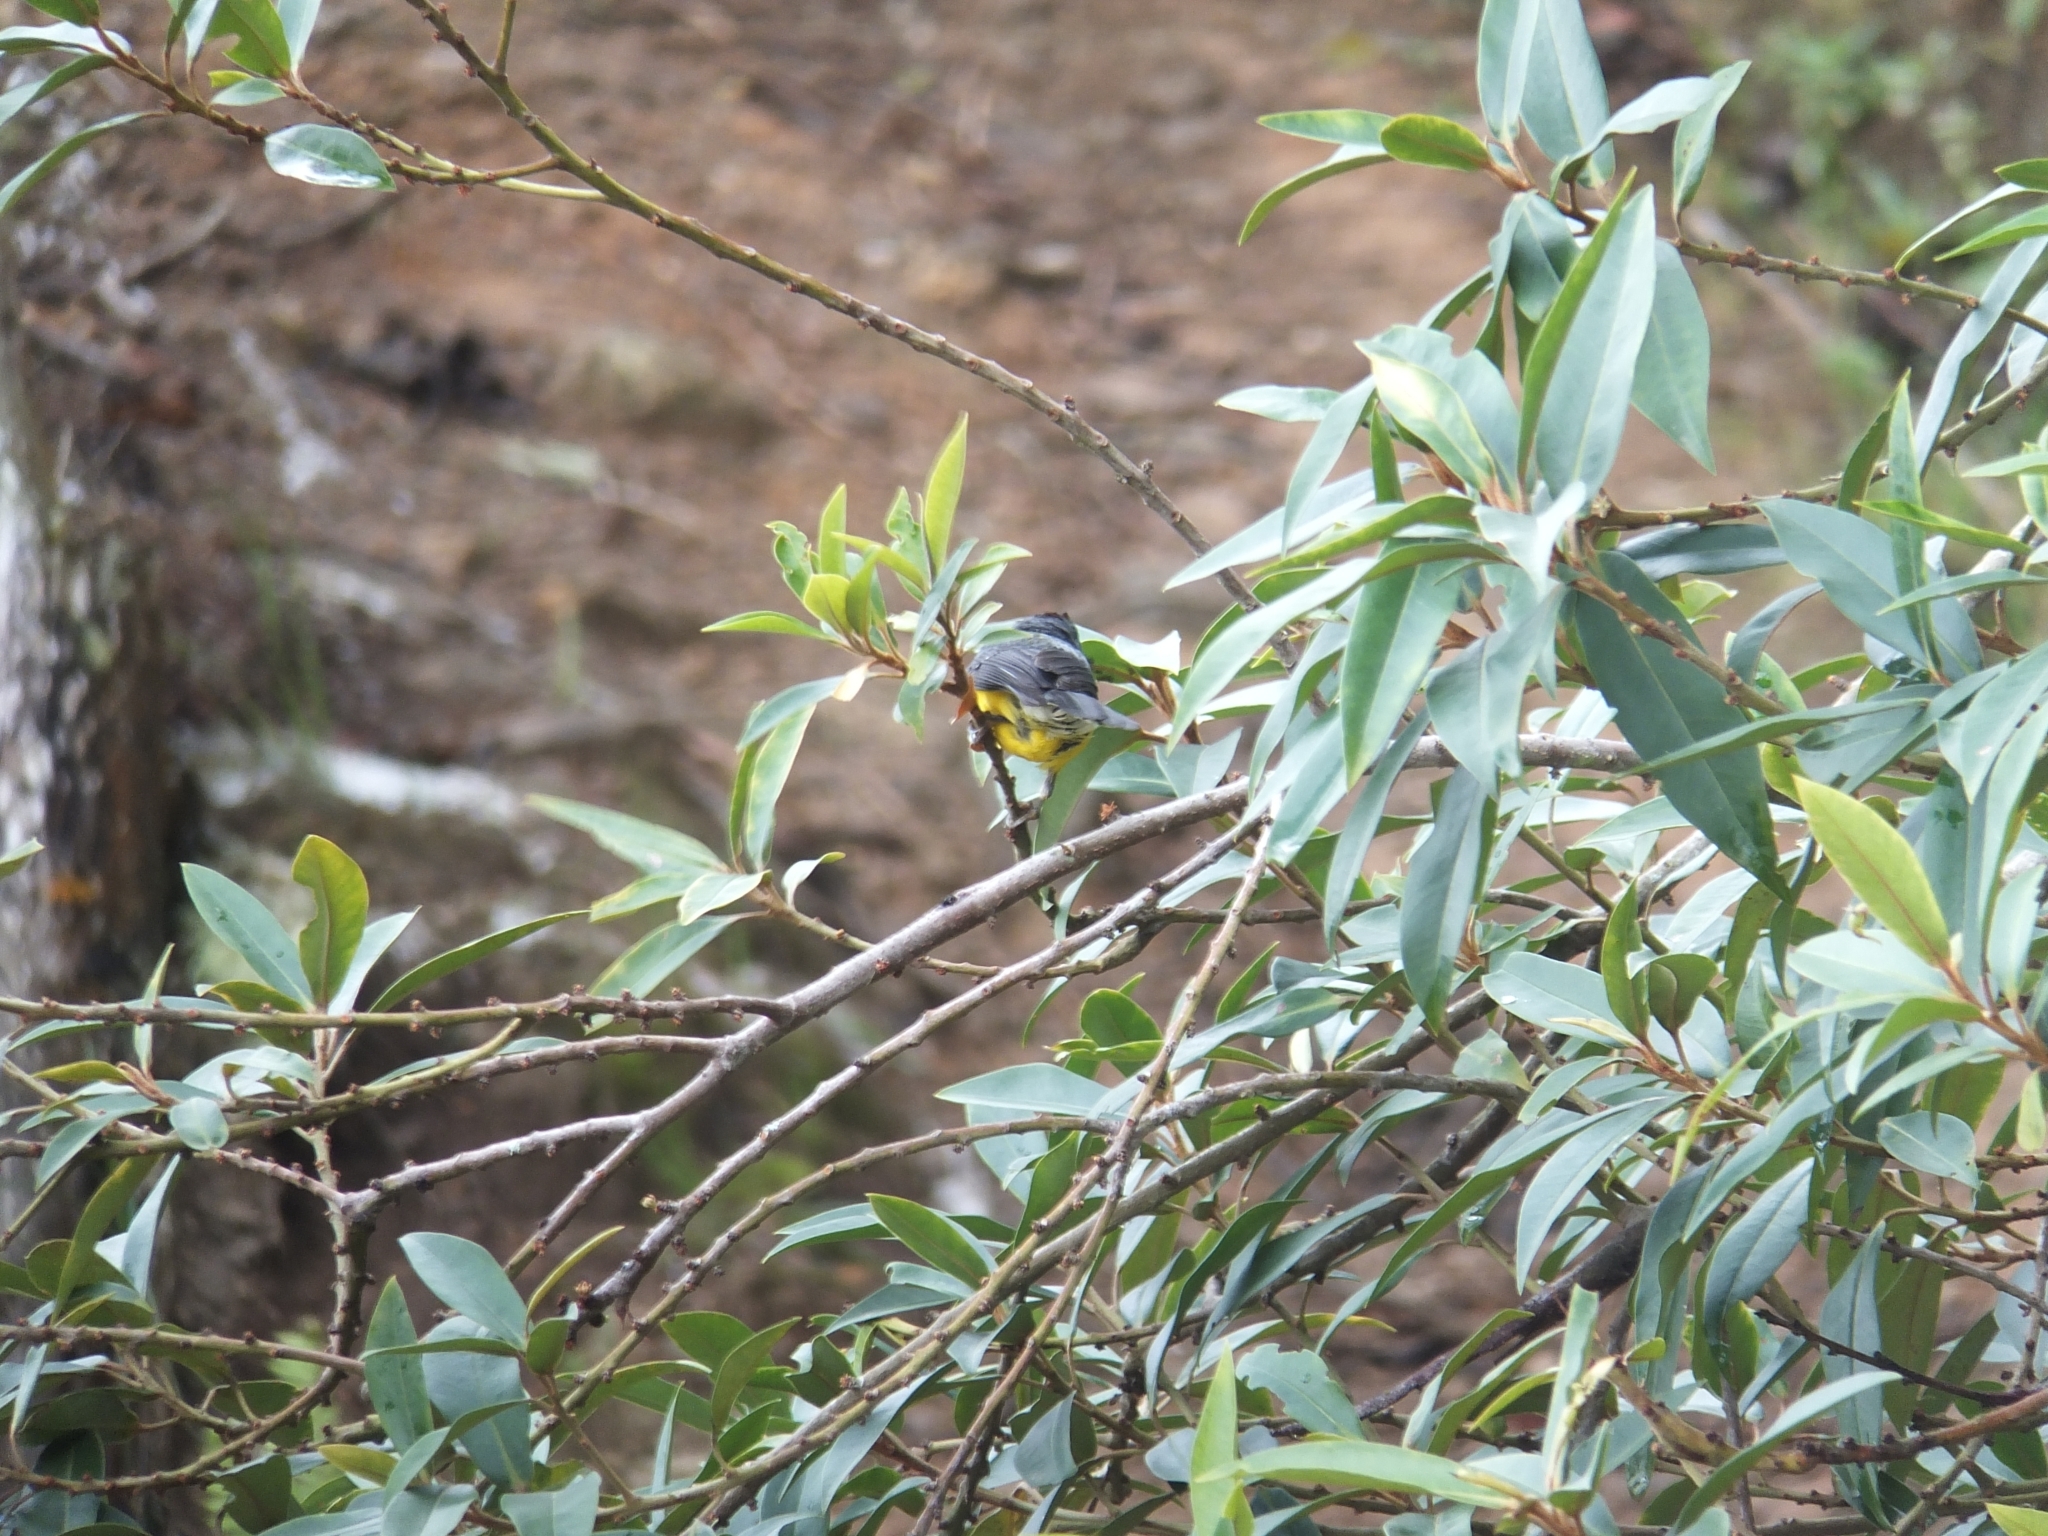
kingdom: Animalia
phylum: Chordata
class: Aves
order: Passeriformes
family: Parulidae
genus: Myioborus
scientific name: Myioborus miniatus
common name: Slate-throated redstart
